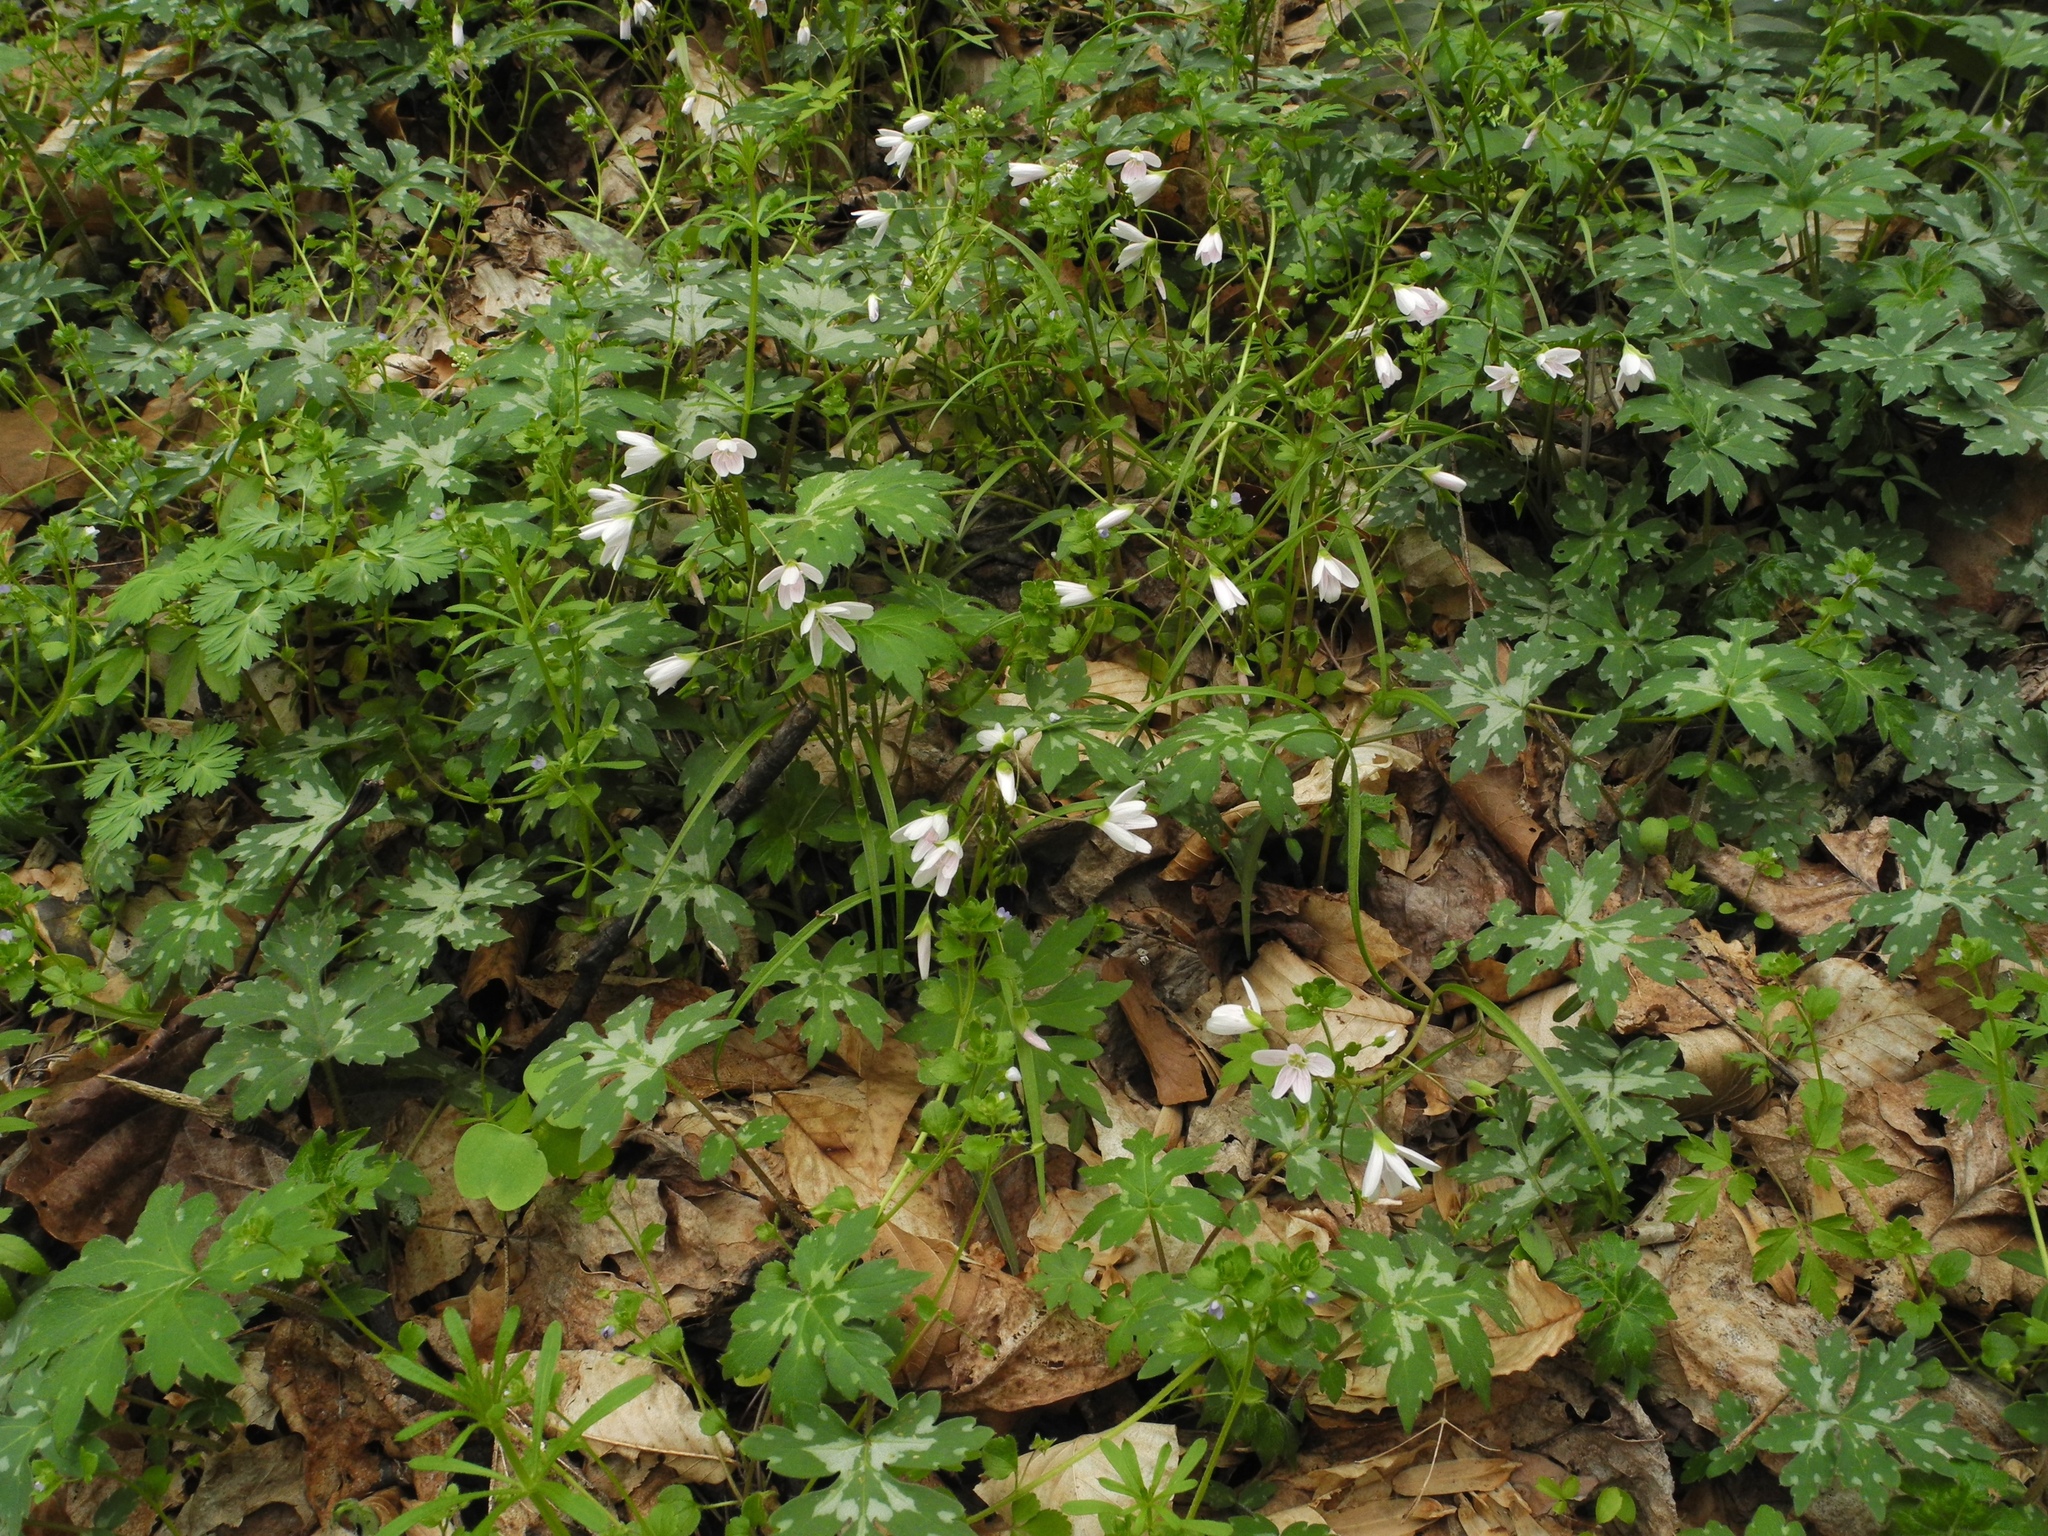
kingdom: Plantae
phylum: Tracheophyta
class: Magnoliopsida
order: Caryophyllales
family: Montiaceae
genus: Claytonia
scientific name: Claytonia virginica
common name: Virginia springbeauty
